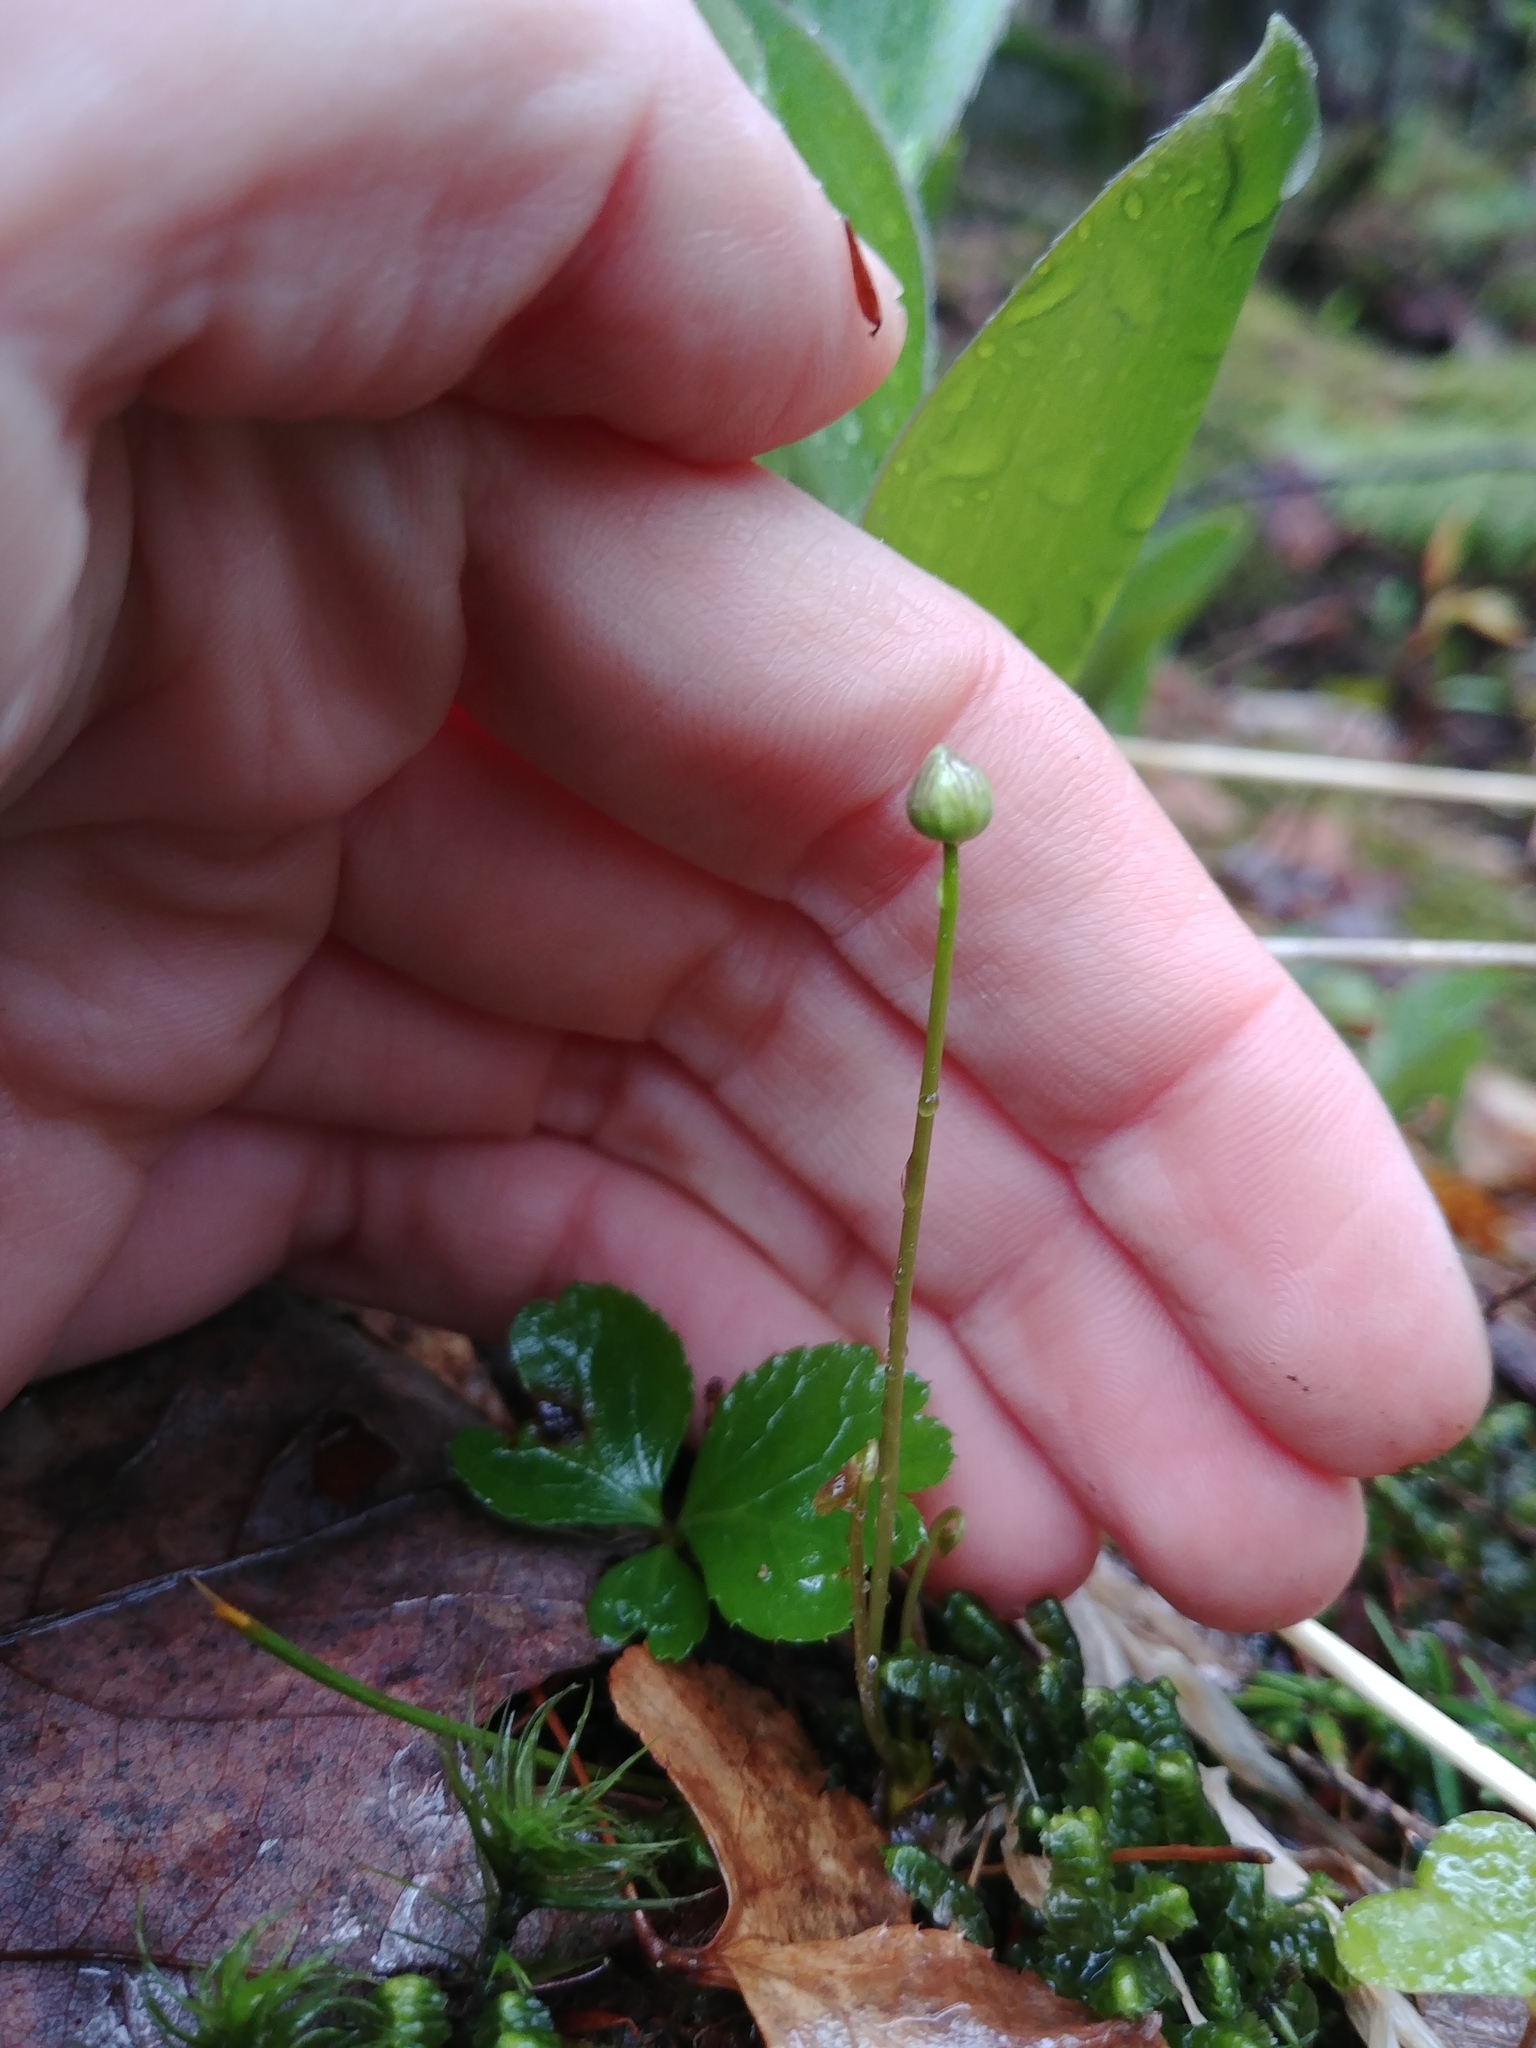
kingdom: Plantae
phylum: Tracheophyta
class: Magnoliopsida
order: Ranunculales
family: Ranunculaceae
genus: Coptis
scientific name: Coptis trifolia
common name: Canker-root
